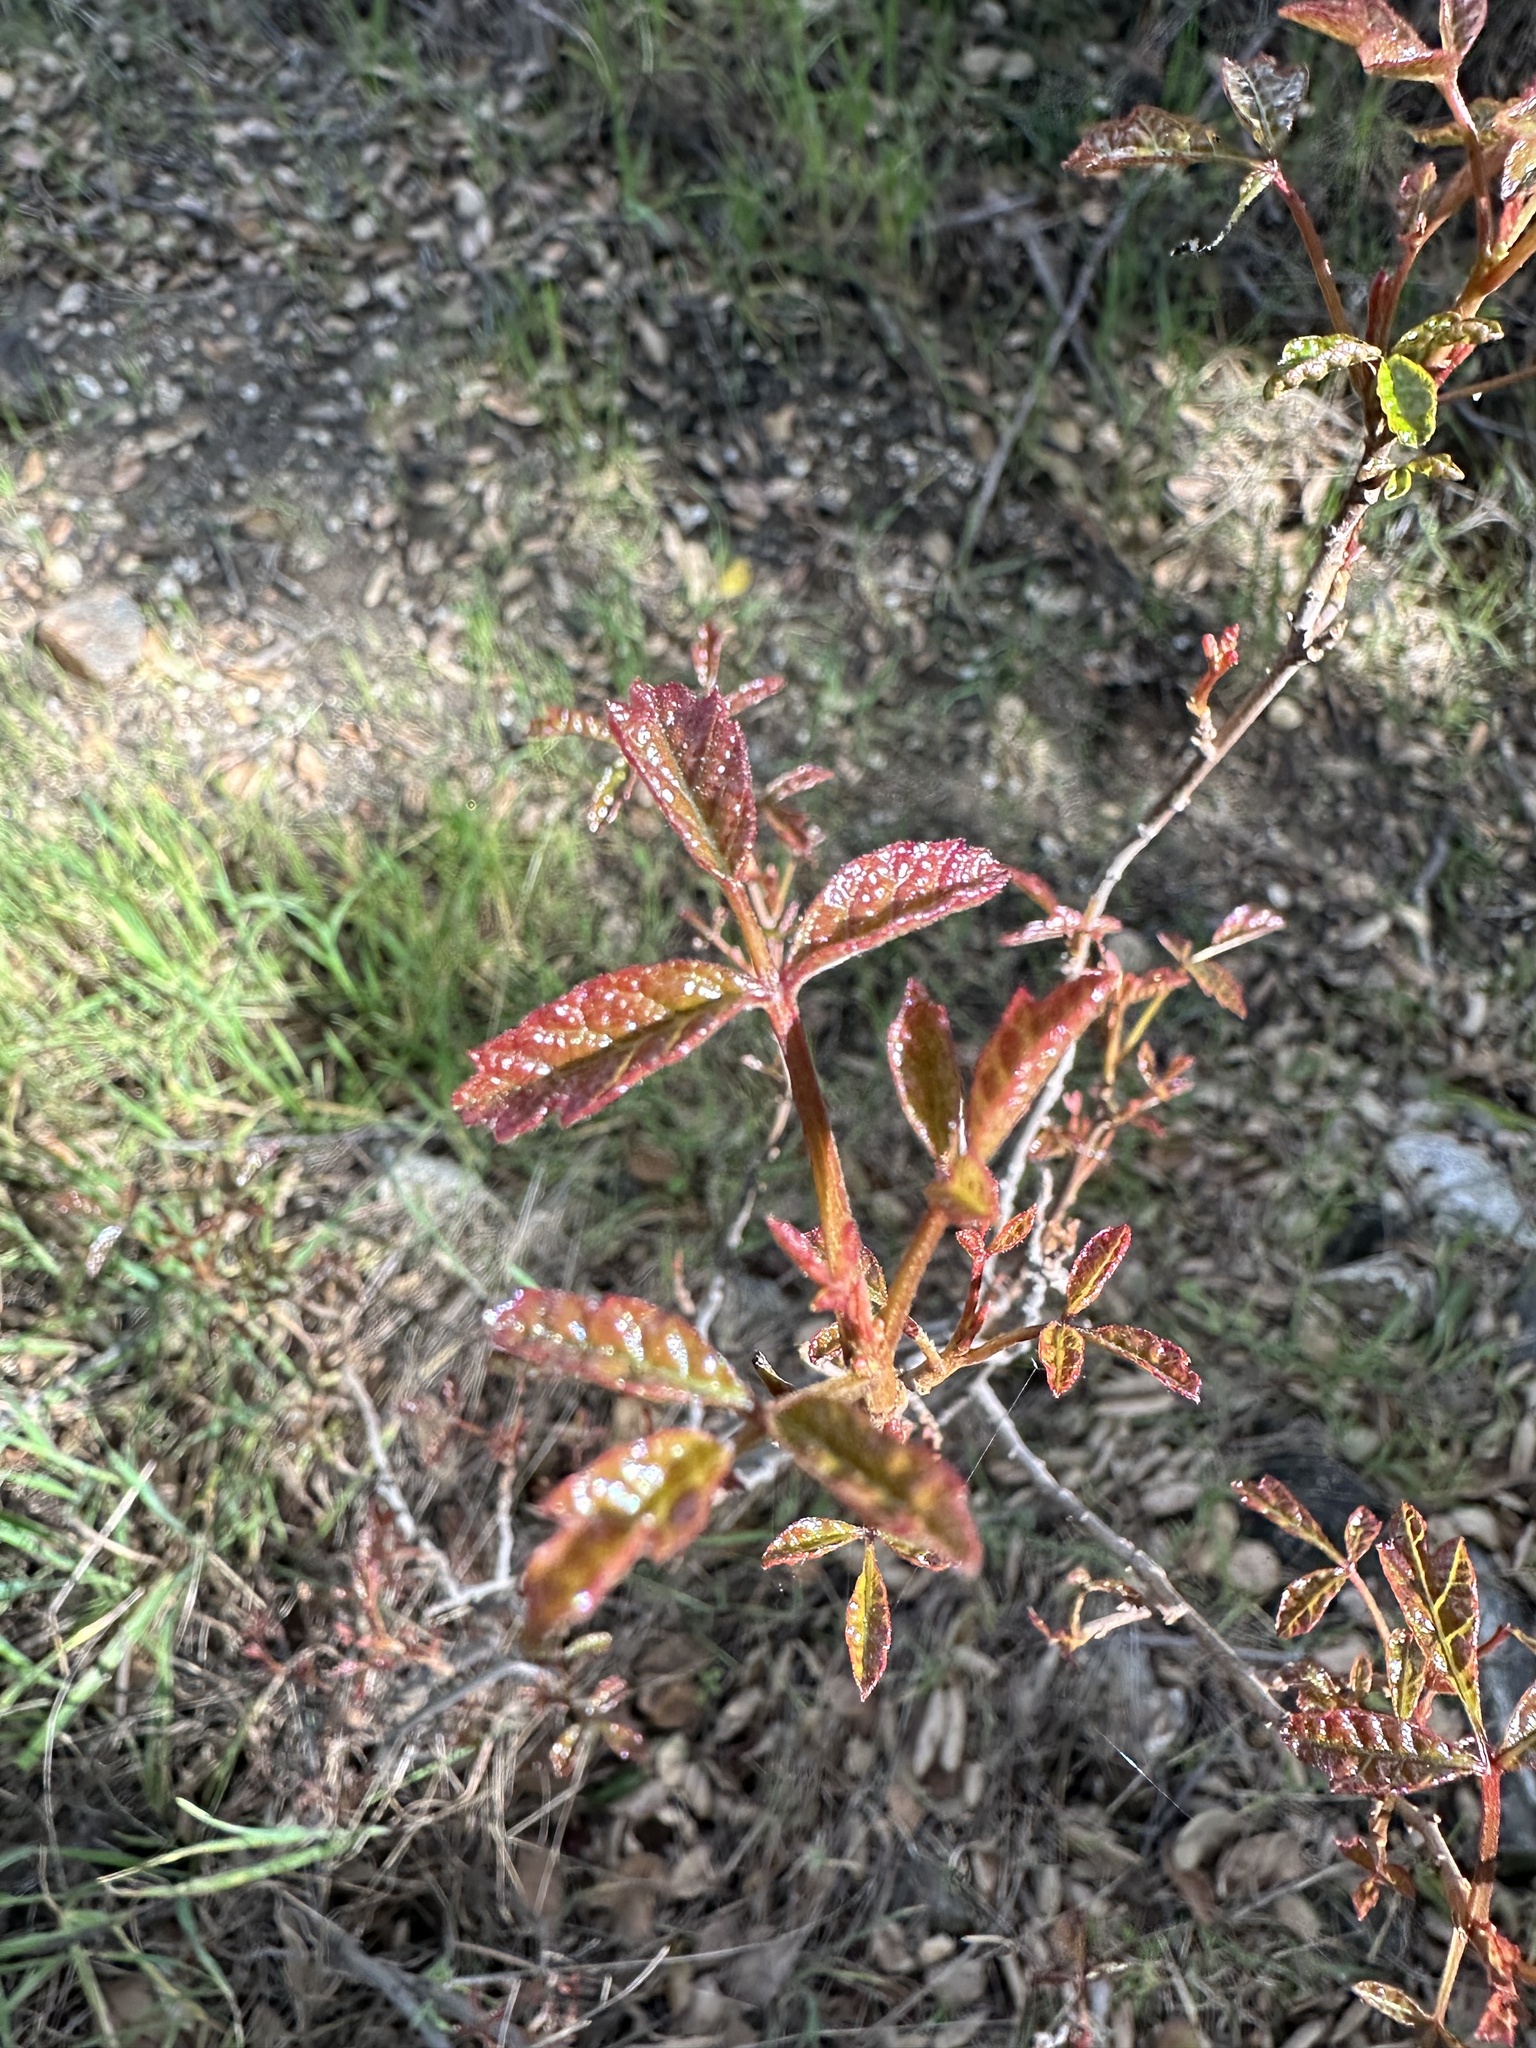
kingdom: Plantae
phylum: Tracheophyta
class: Magnoliopsida
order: Sapindales
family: Anacardiaceae
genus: Toxicodendron
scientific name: Toxicodendron diversilobum
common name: Pacific poison-oak
